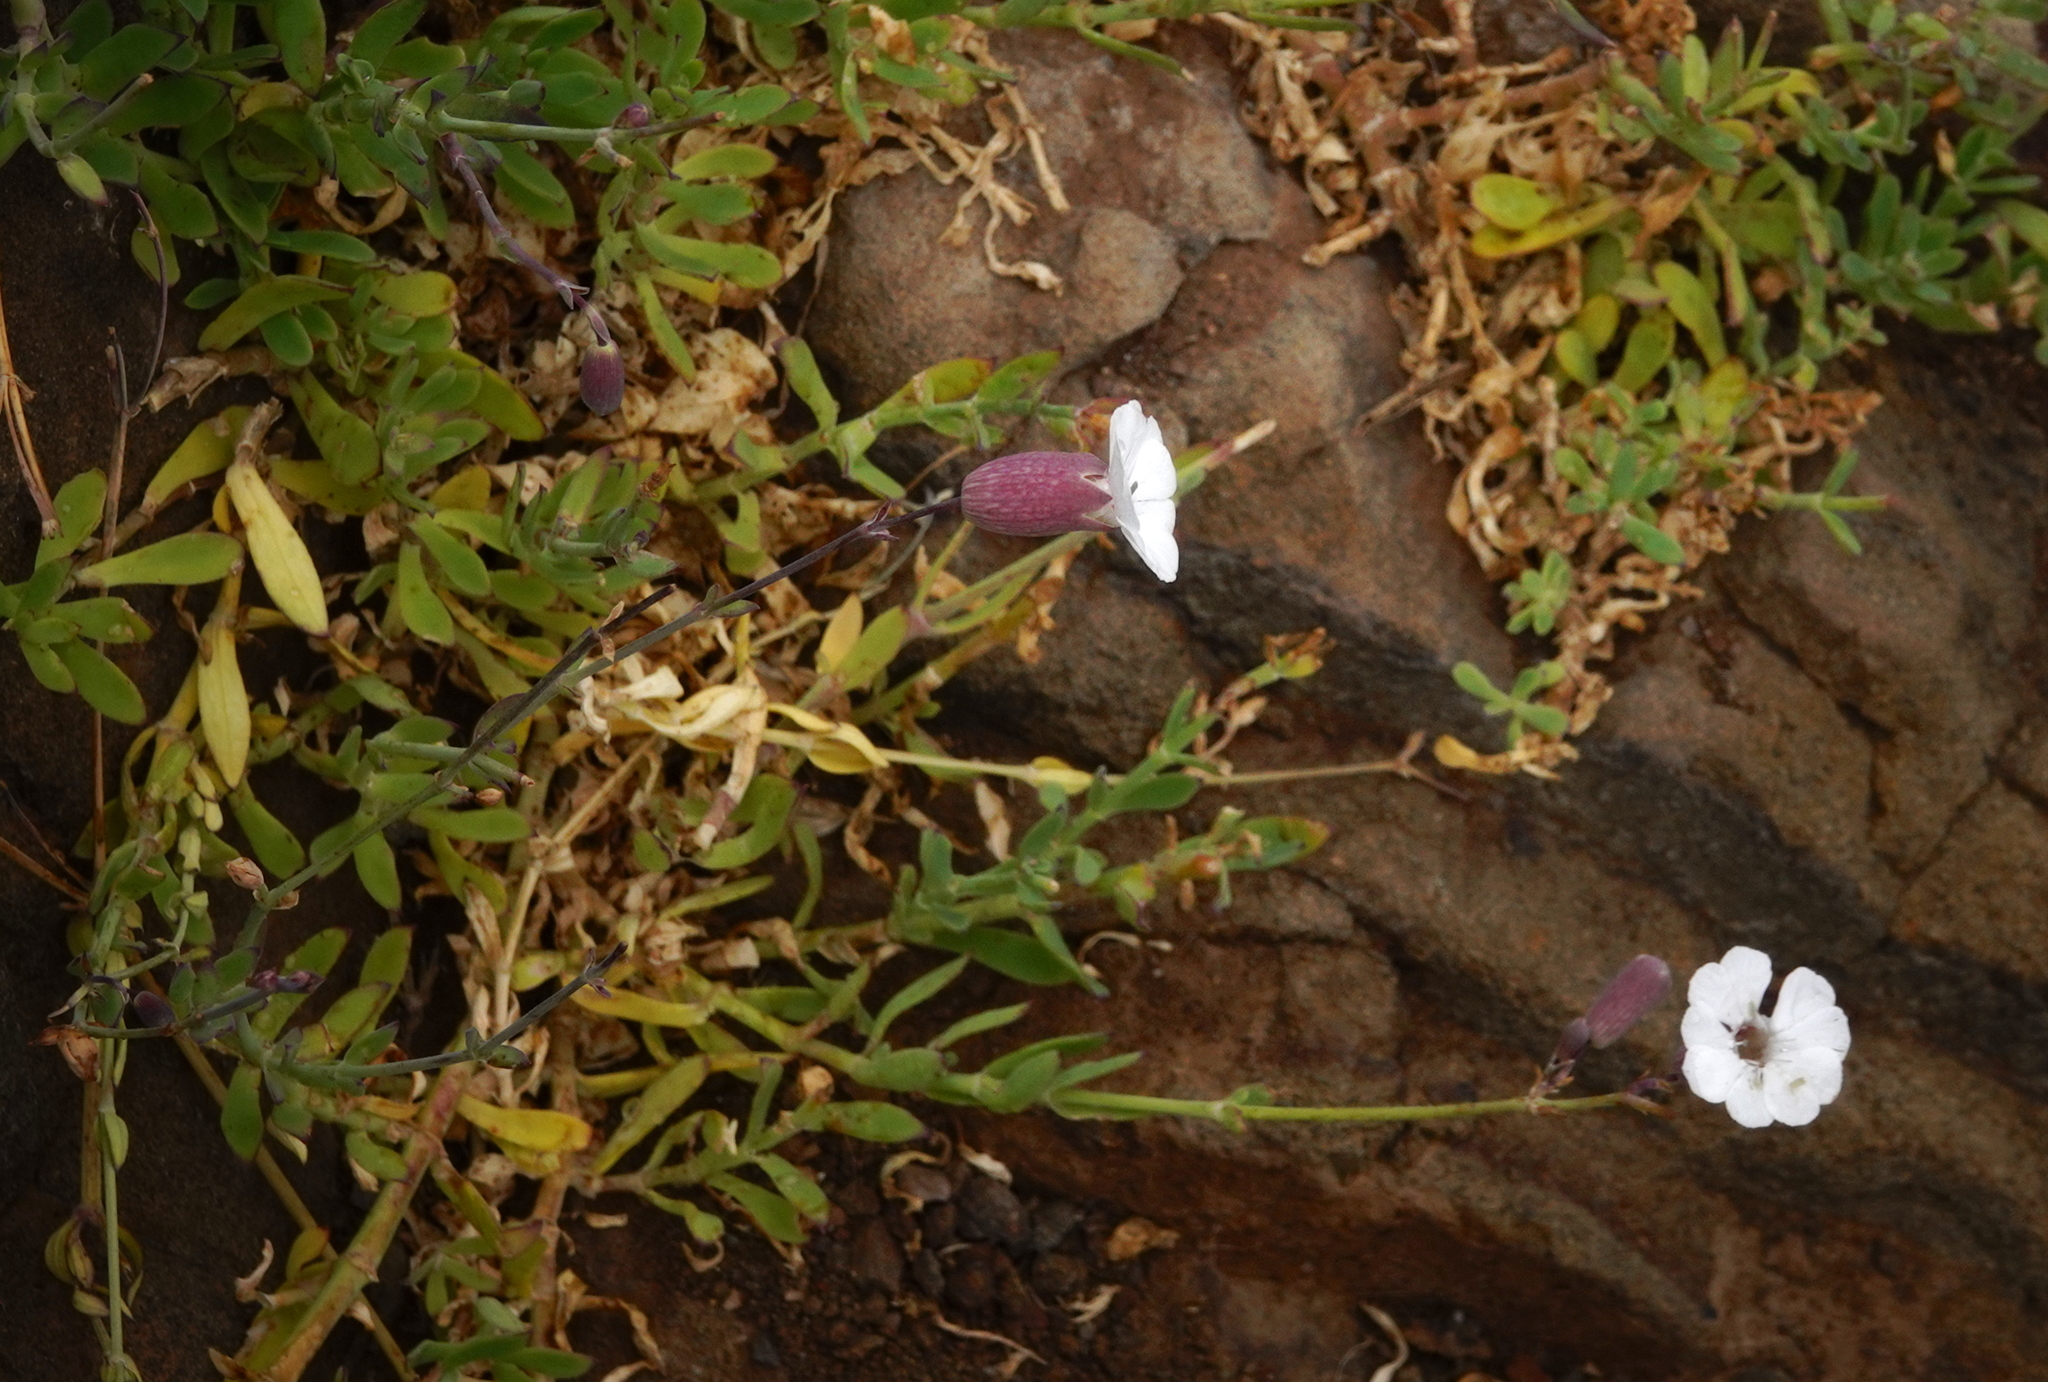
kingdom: Plantae
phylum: Tracheophyta
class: Magnoliopsida
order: Caryophyllales
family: Caryophyllaceae
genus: Silene
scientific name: Silene uniflora
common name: Sea campion
